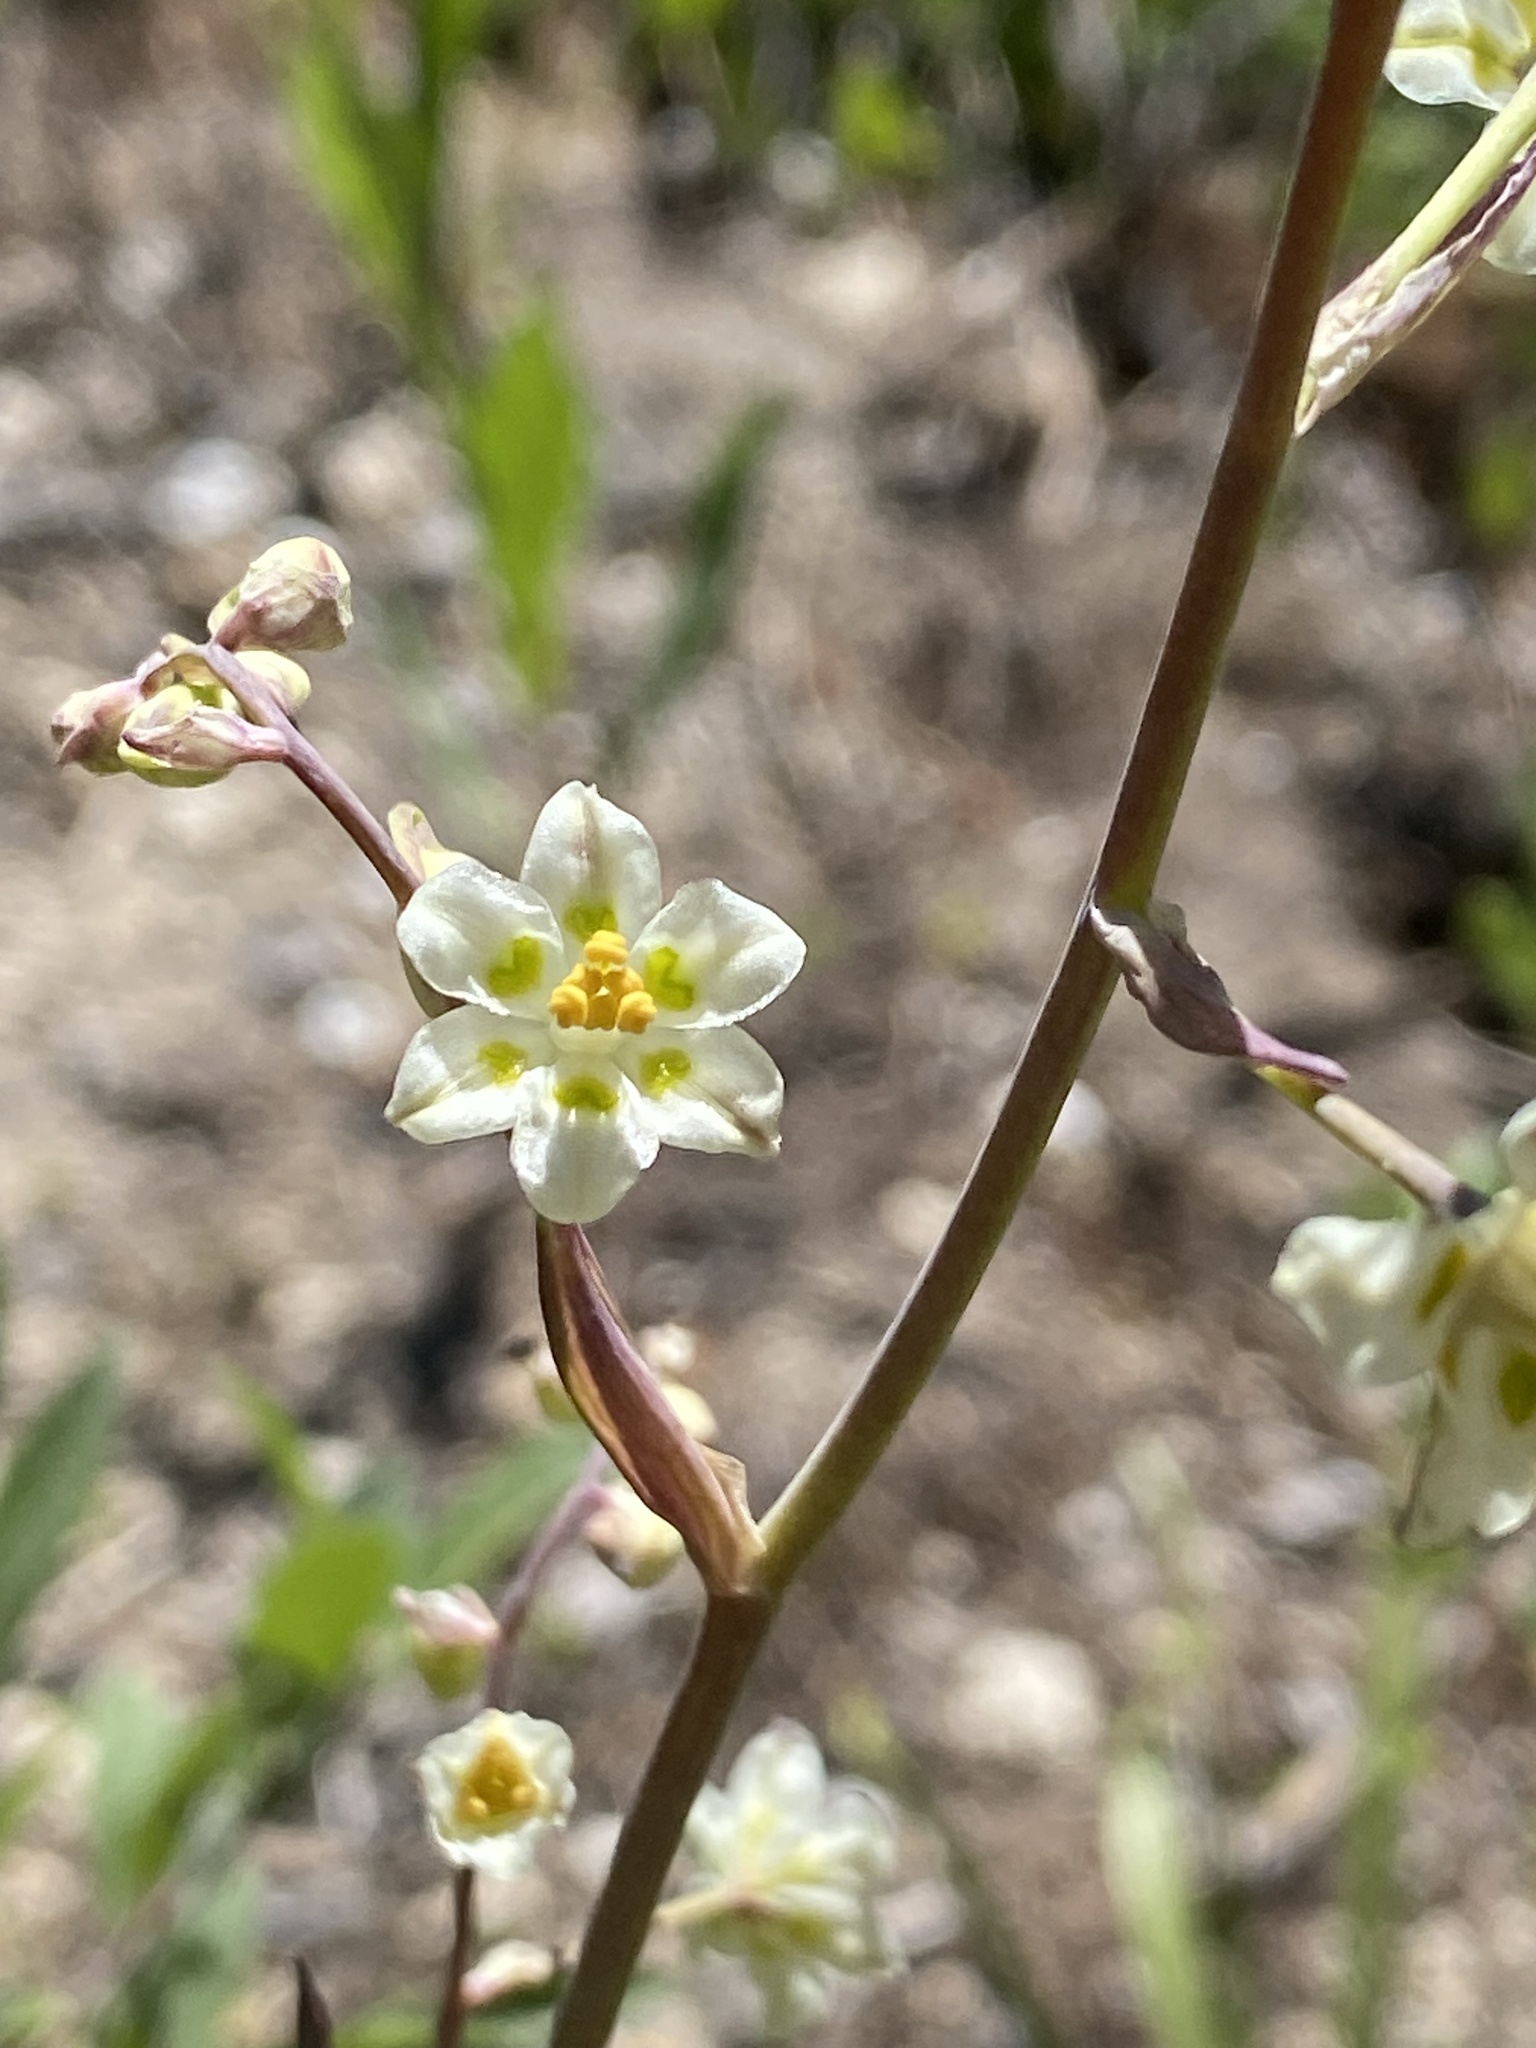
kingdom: Plantae
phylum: Tracheophyta
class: Liliopsida
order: Liliales
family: Melanthiaceae
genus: Anticlea
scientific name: Anticlea elegans
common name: Mountain death camas
